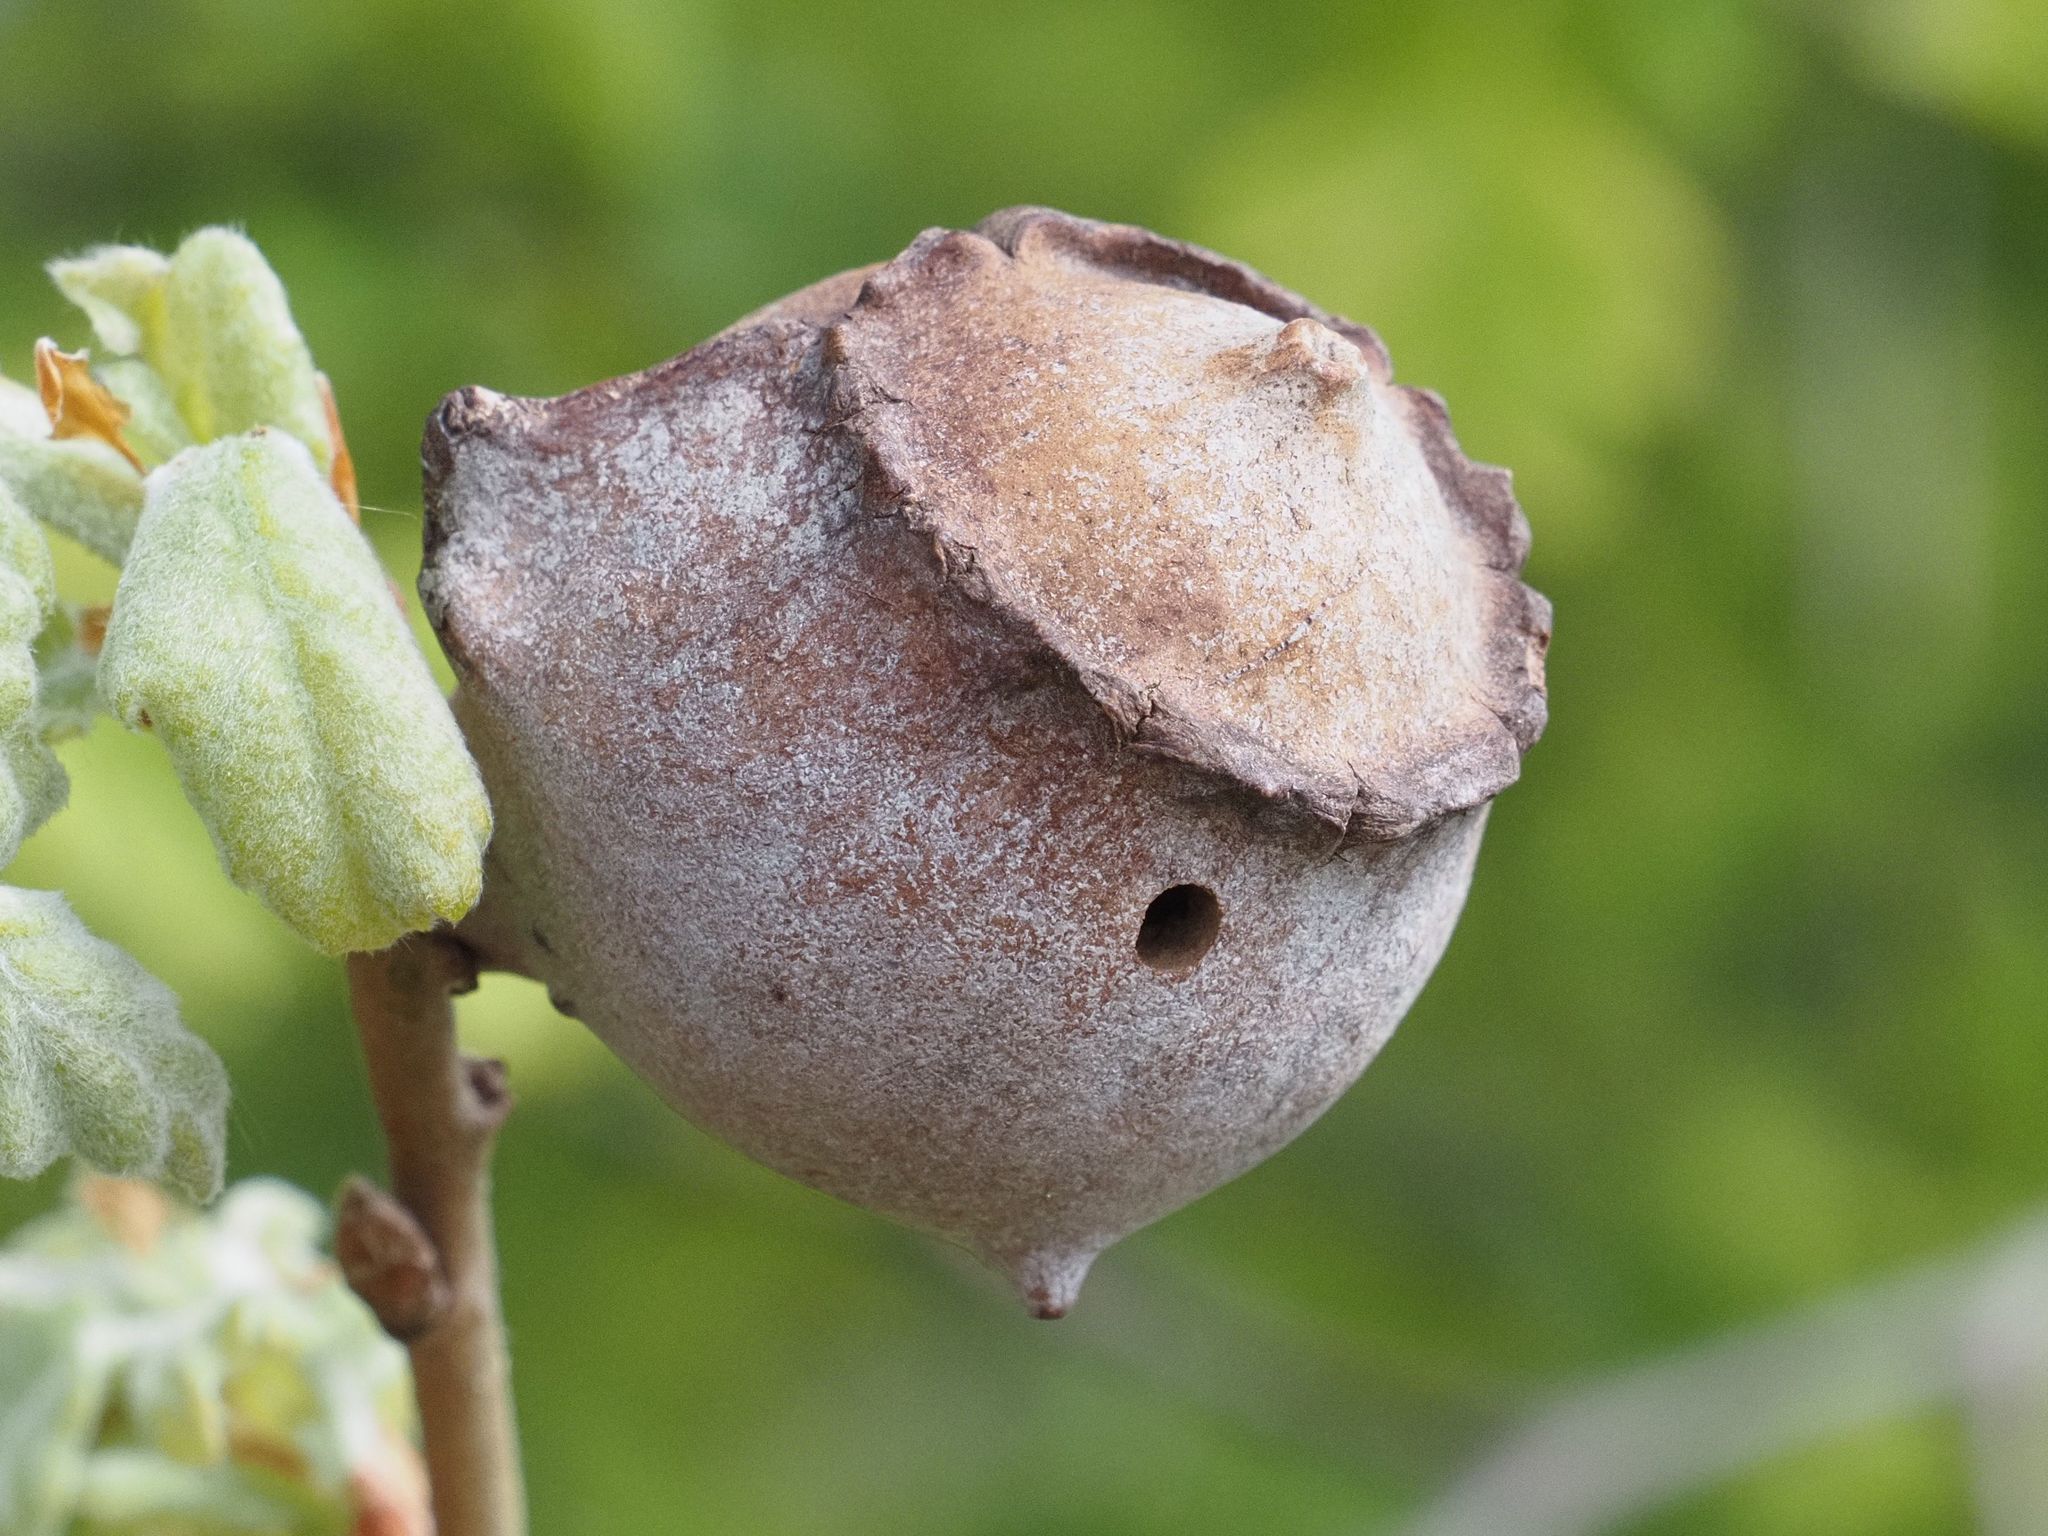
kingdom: Animalia
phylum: Arthropoda
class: Insecta
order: Hymenoptera
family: Cynipidae
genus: Andricus
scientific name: Andricus quercustozae
